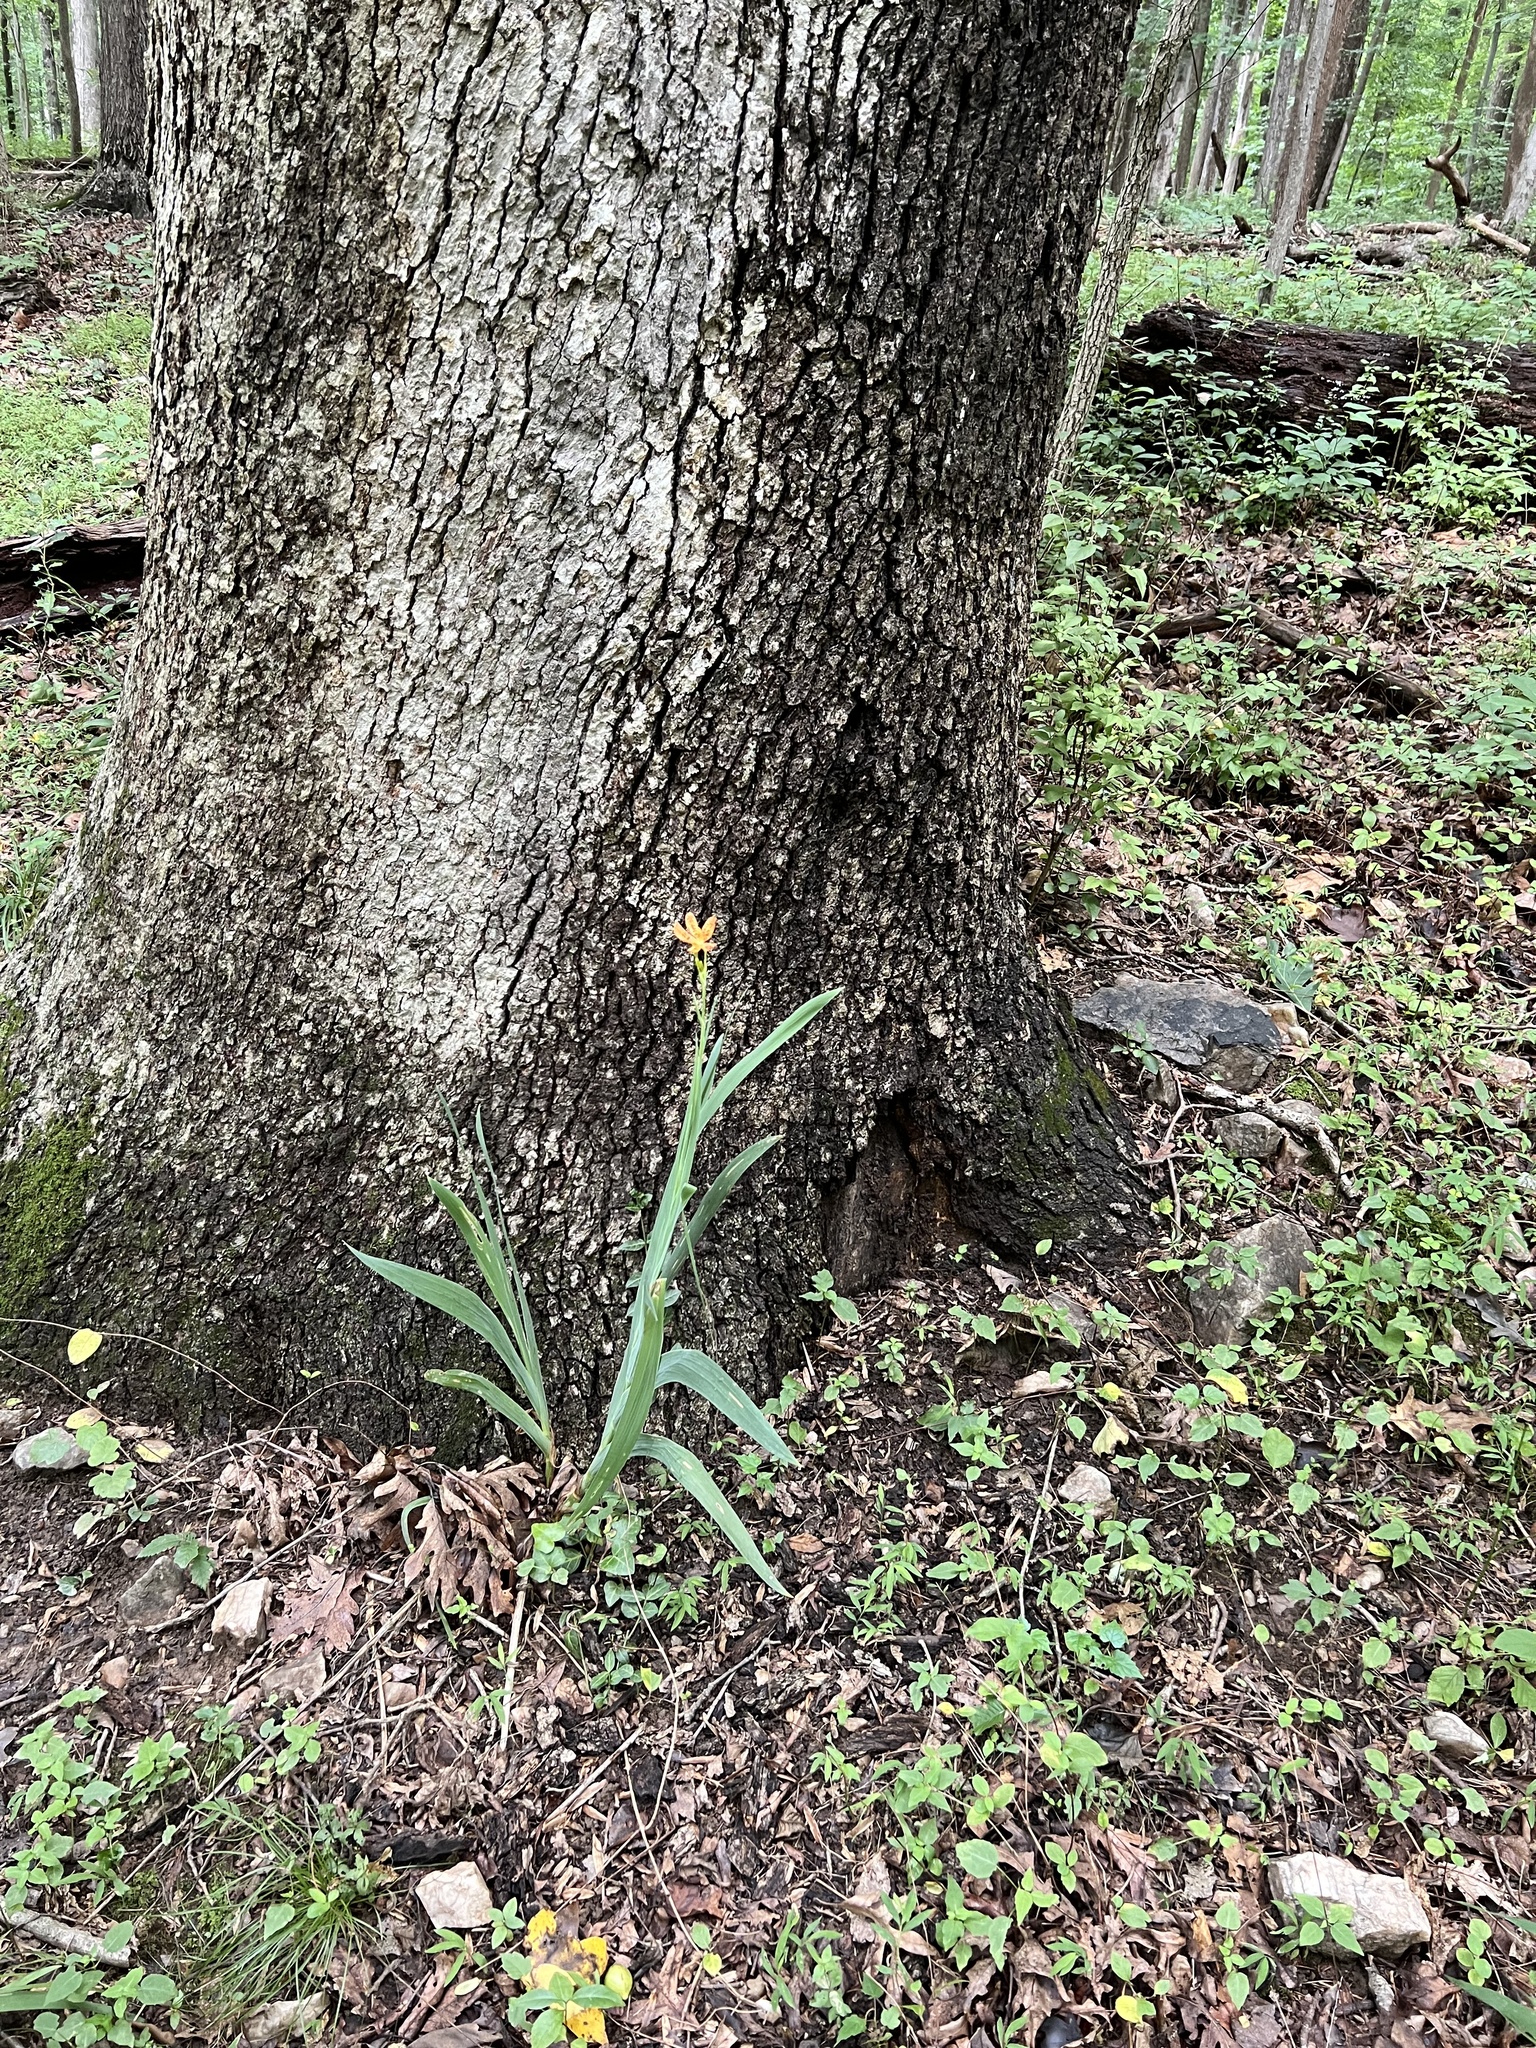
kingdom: Plantae
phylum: Tracheophyta
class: Liliopsida
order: Asparagales
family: Iridaceae
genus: Iris
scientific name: Iris domestica
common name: Belamcanda
